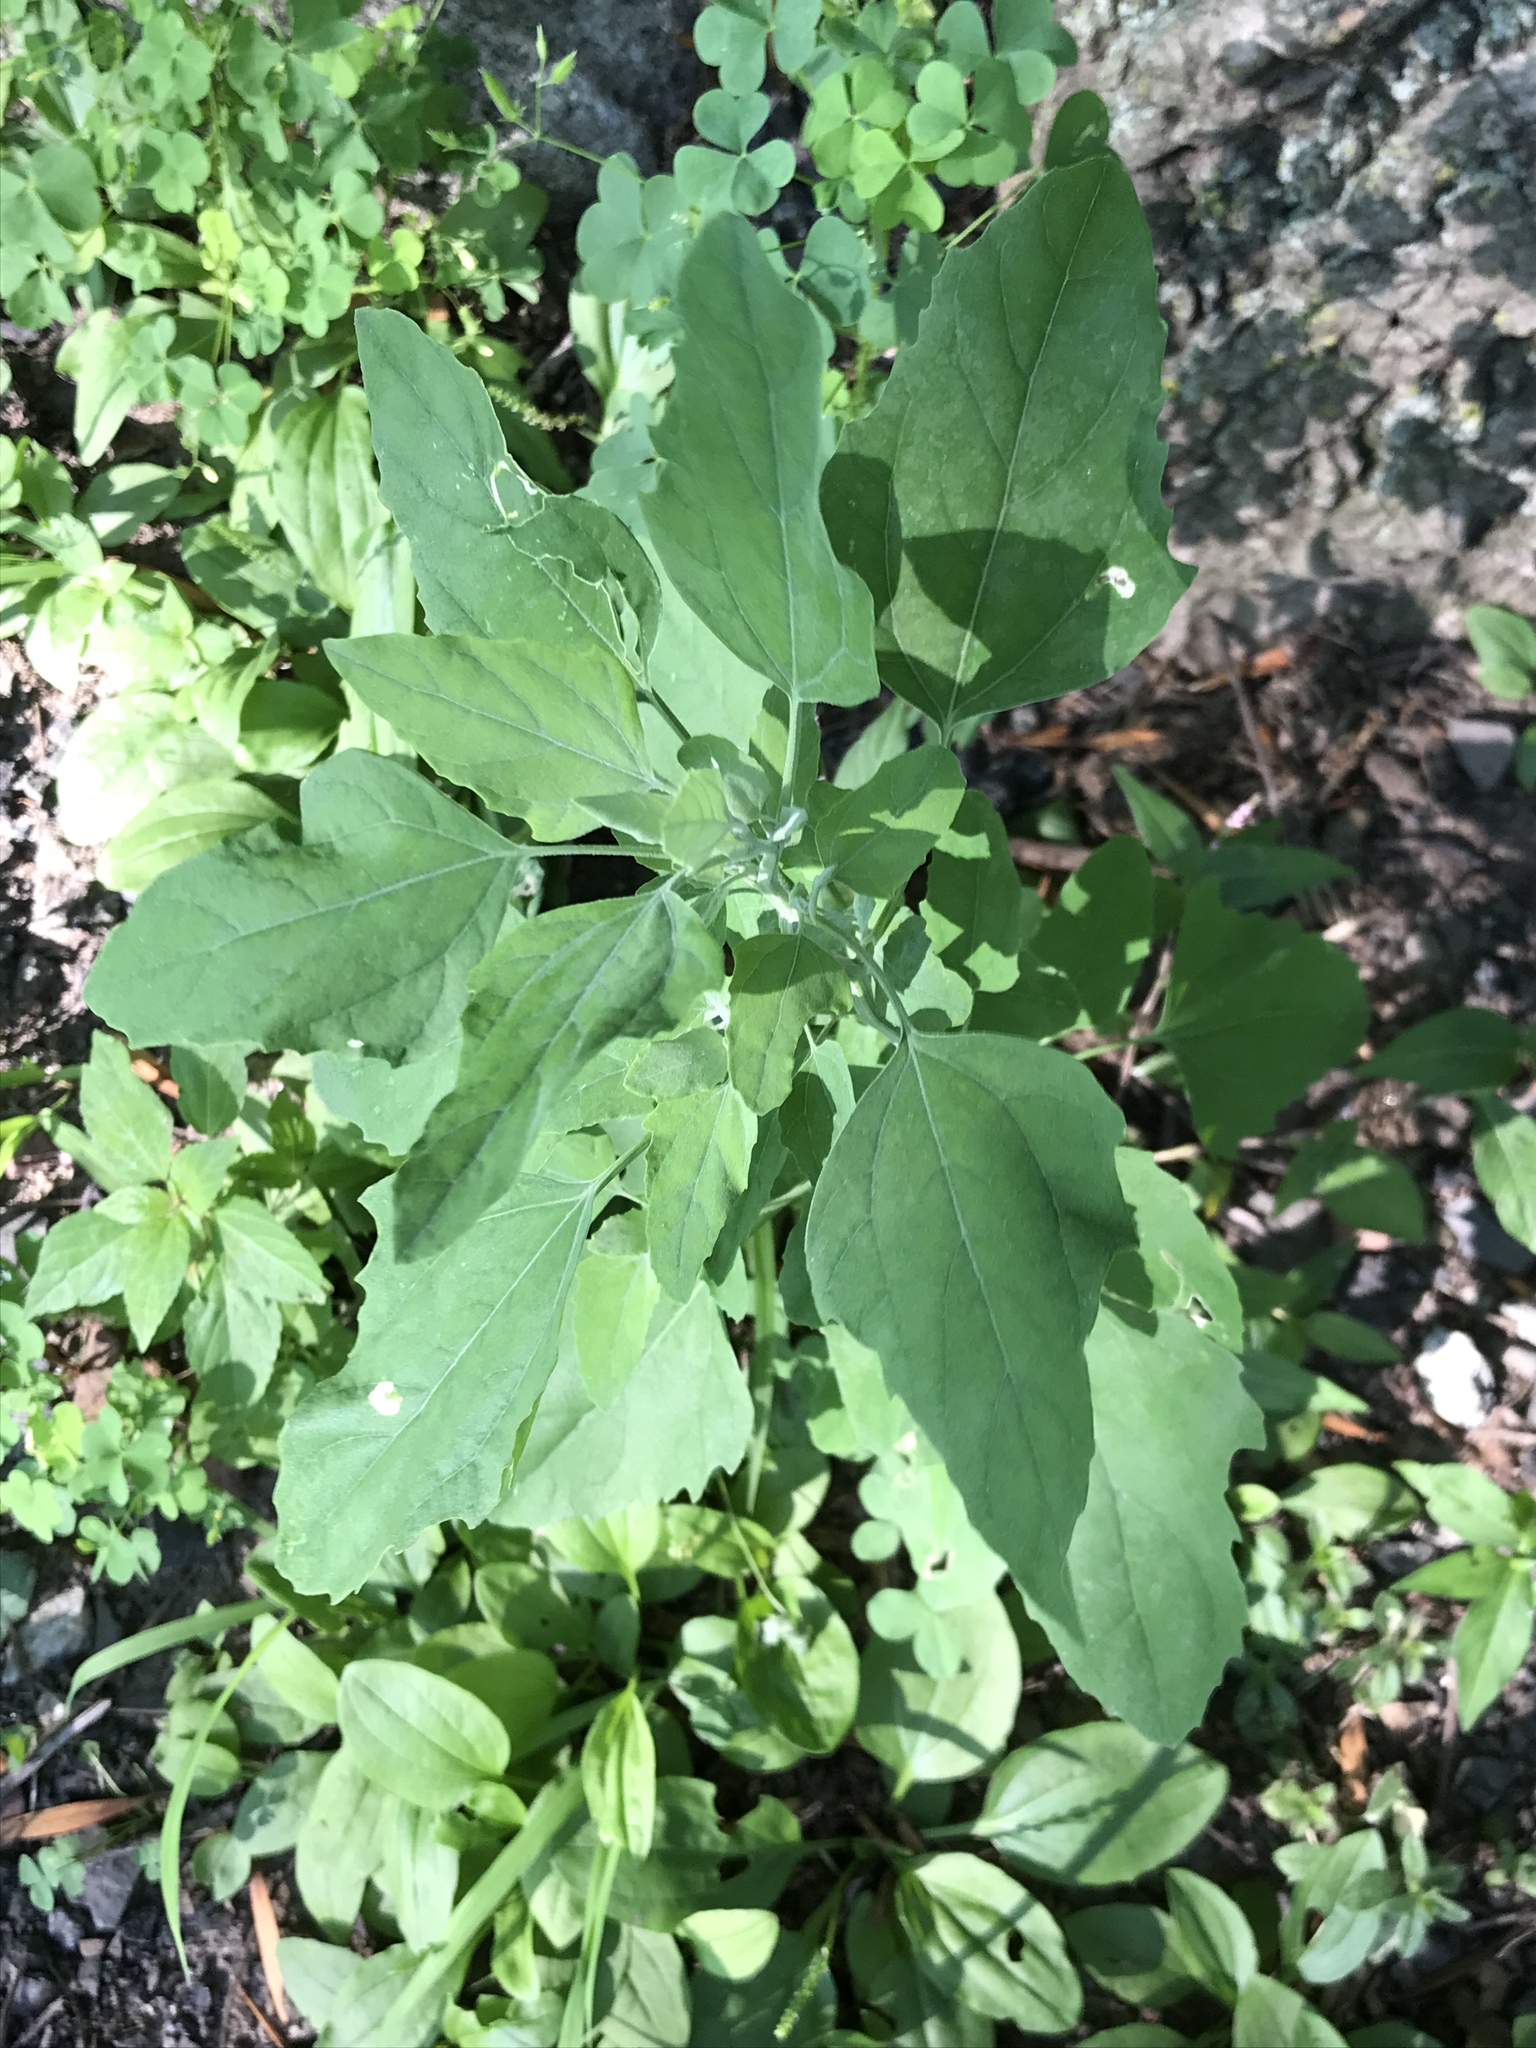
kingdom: Plantae
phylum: Tracheophyta
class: Magnoliopsida
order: Caryophyllales
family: Amaranthaceae
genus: Chenopodium
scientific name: Chenopodium album
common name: Fat-hen
